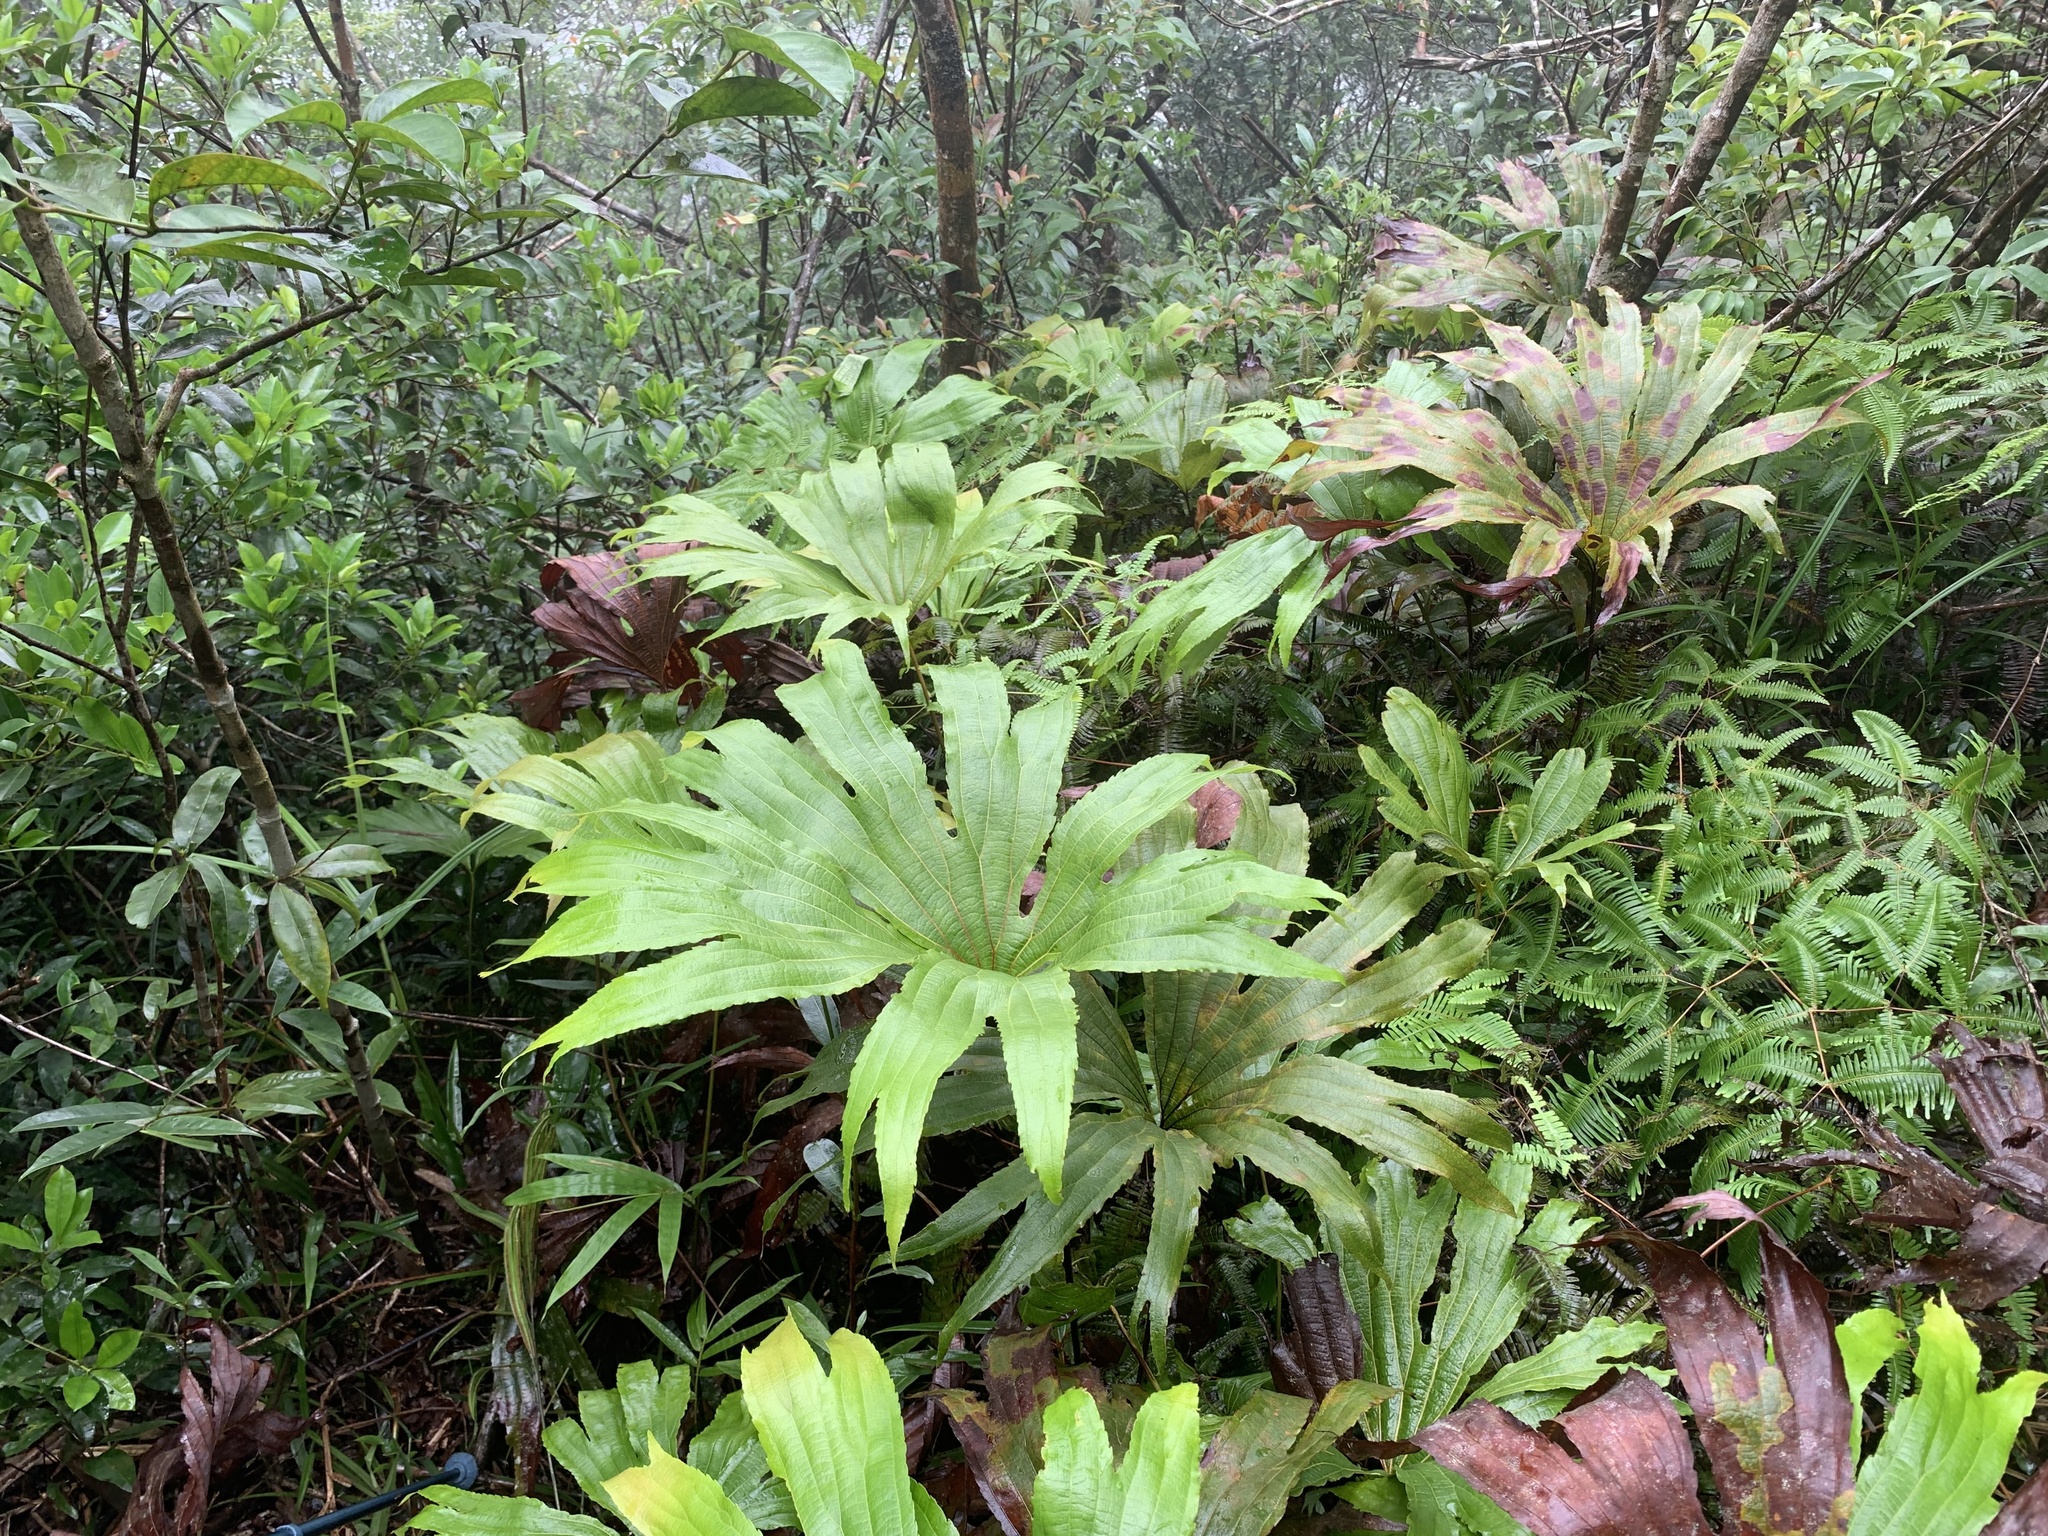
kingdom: Plantae
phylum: Tracheophyta
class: Polypodiopsida
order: Gleicheniales
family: Dipteridaceae
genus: Dipteris
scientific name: Dipteris conjugata
